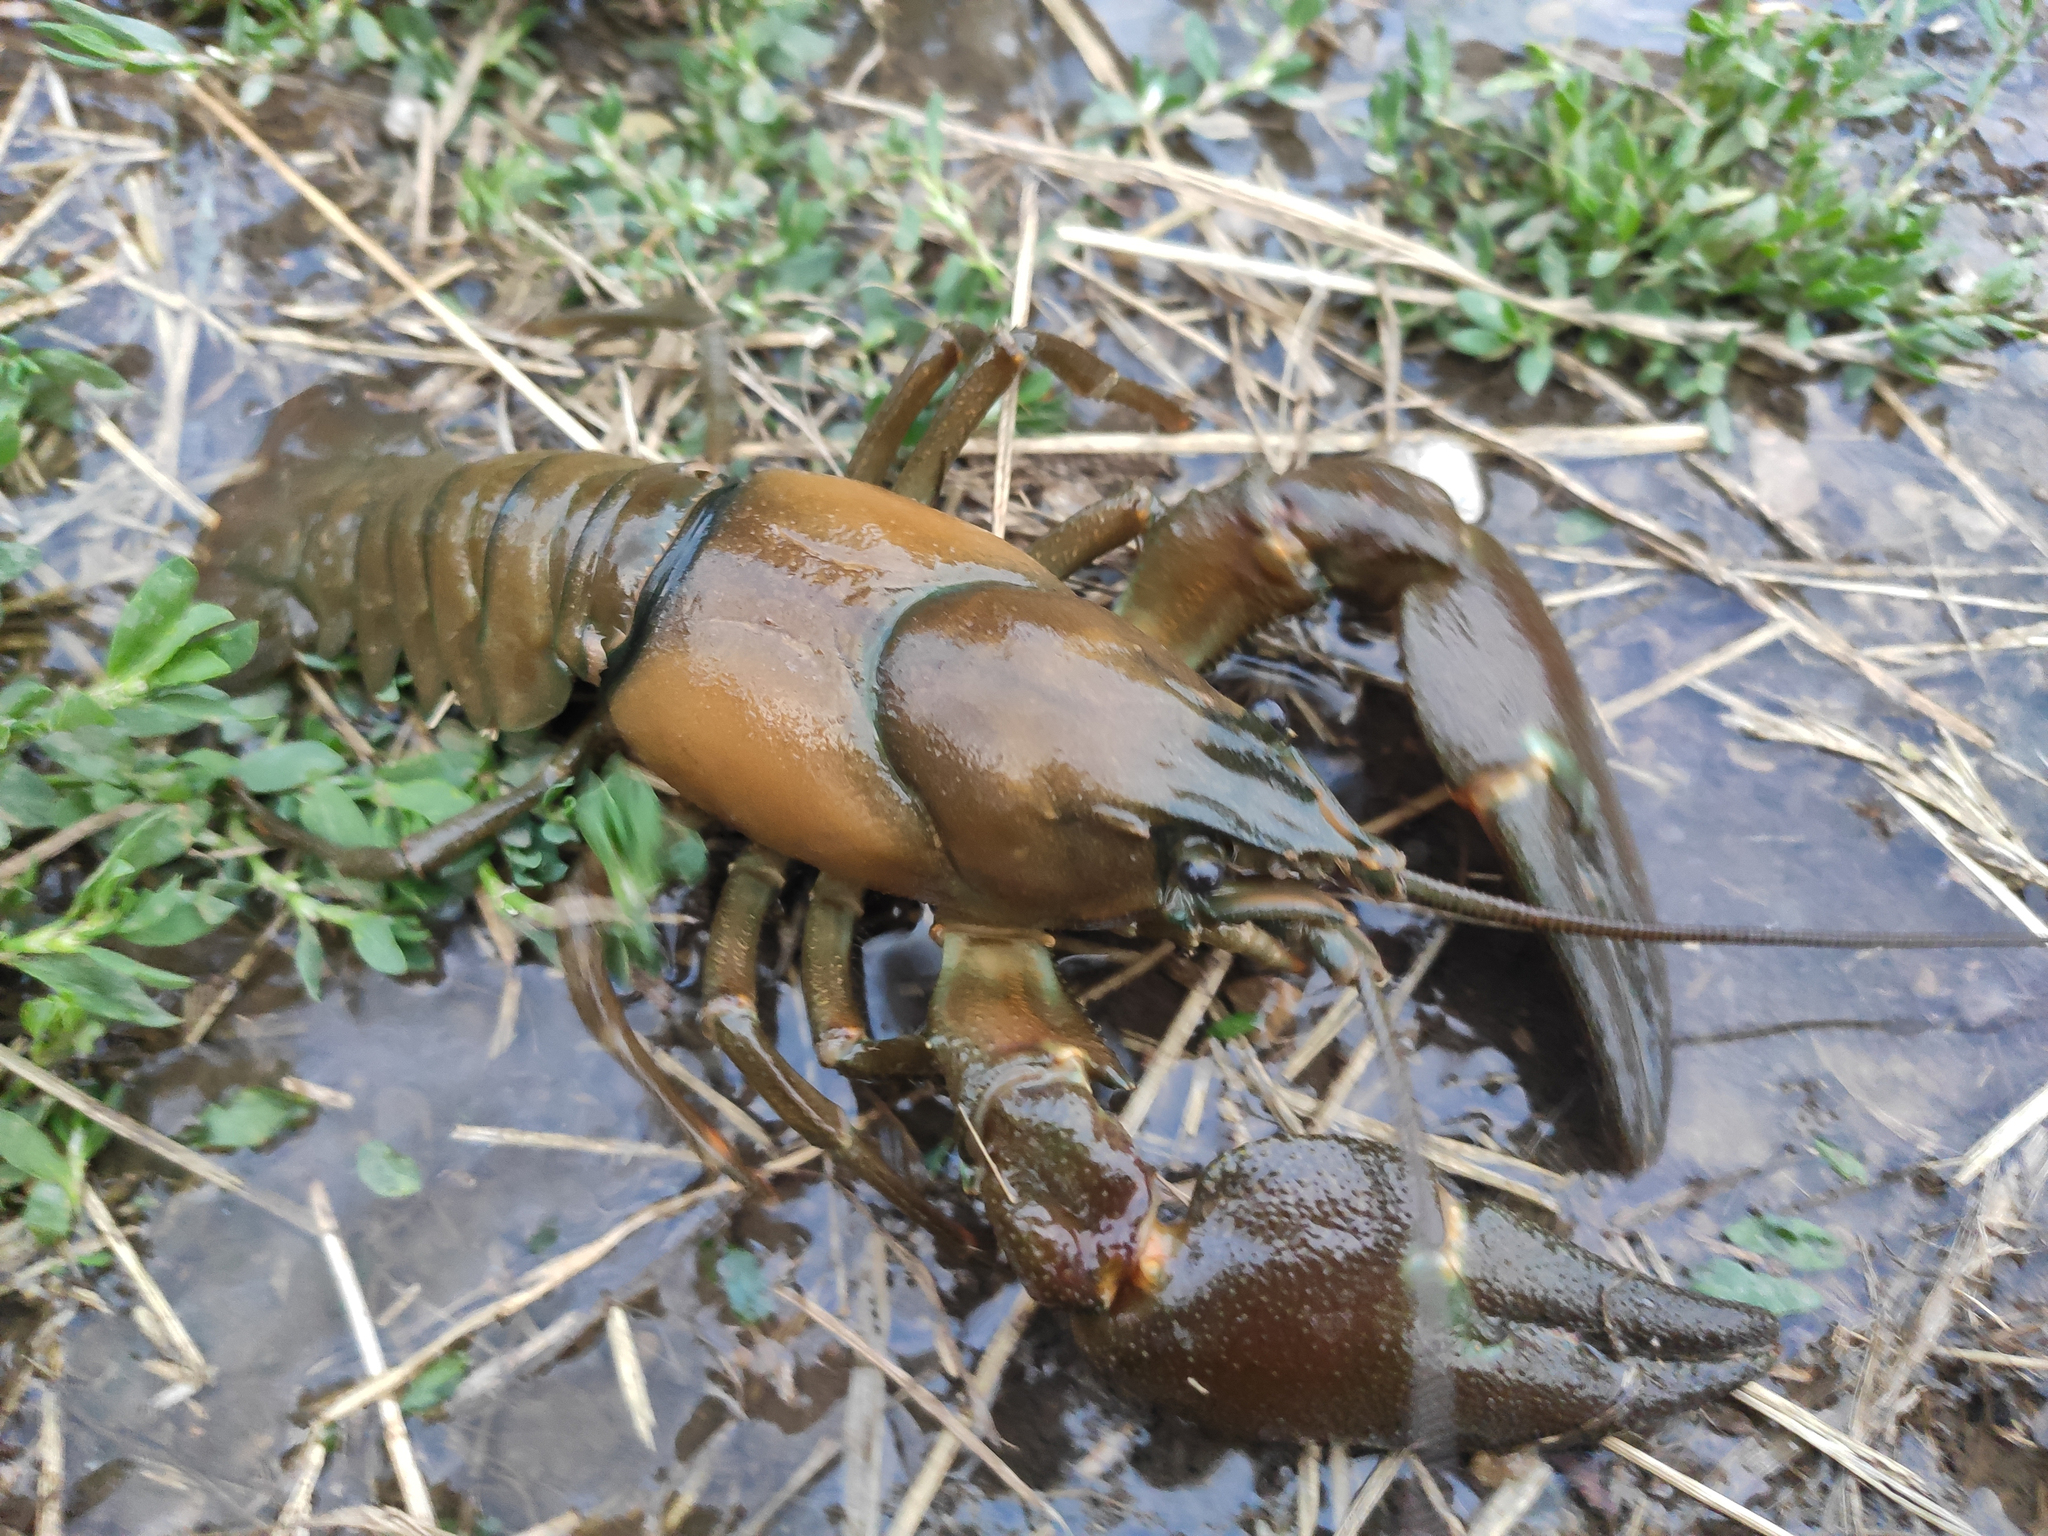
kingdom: Animalia
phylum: Arthropoda
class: Malacostraca
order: Decapoda
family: Astacidae
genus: Pacifastacus
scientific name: Pacifastacus leniusculus
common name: Signal crayfish
